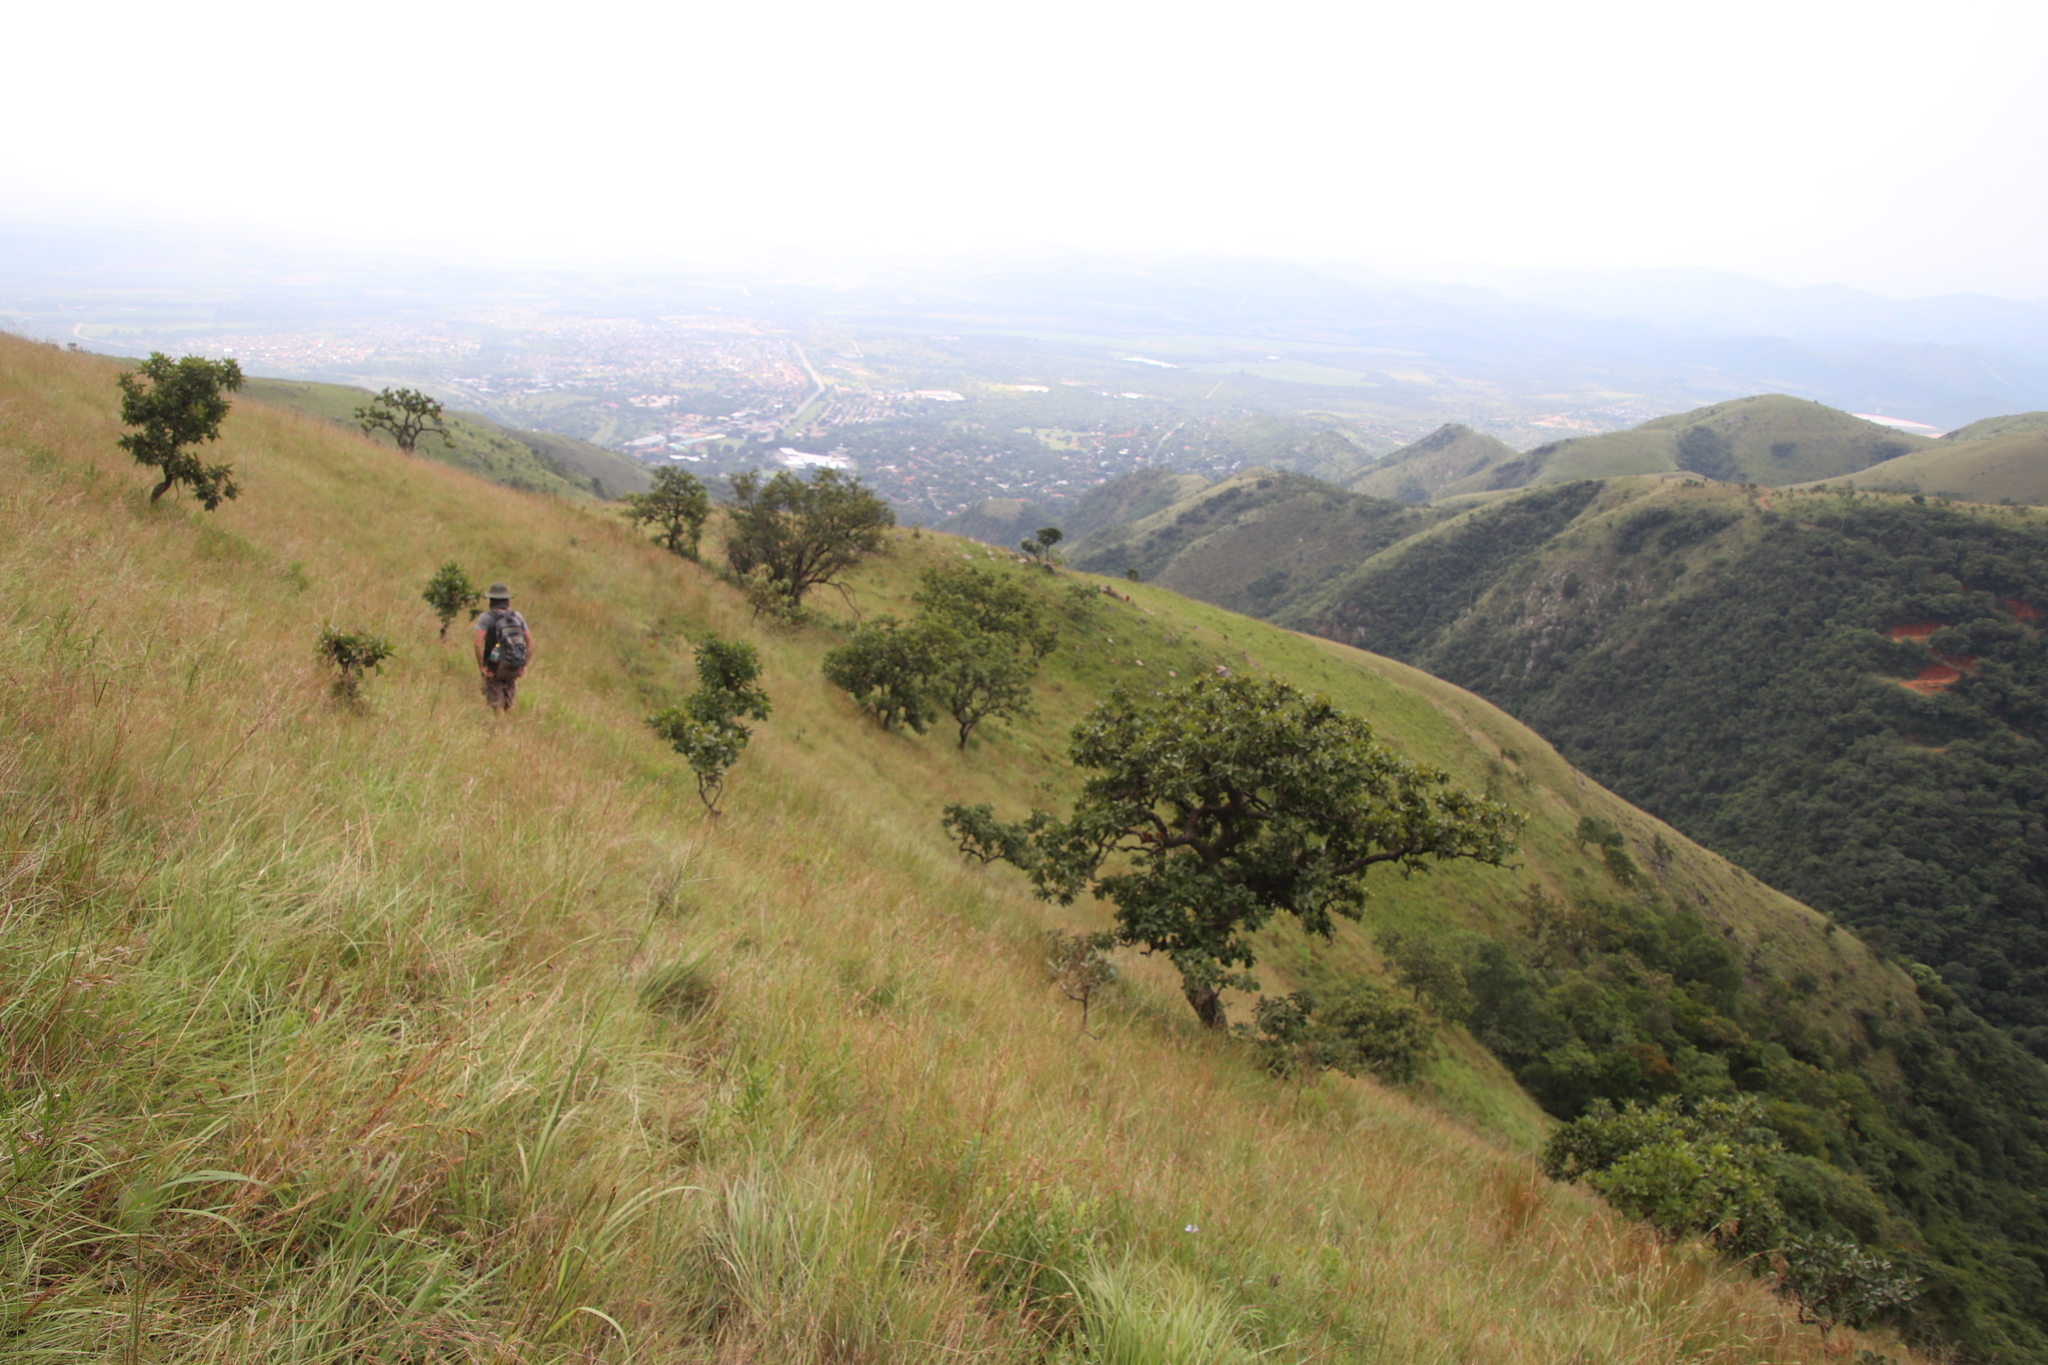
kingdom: Plantae
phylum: Tracheophyta
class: Magnoliopsida
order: Proteales
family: Proteaceae
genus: Faurea
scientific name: Faurea rochetiana
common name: Broad-leaved beech
